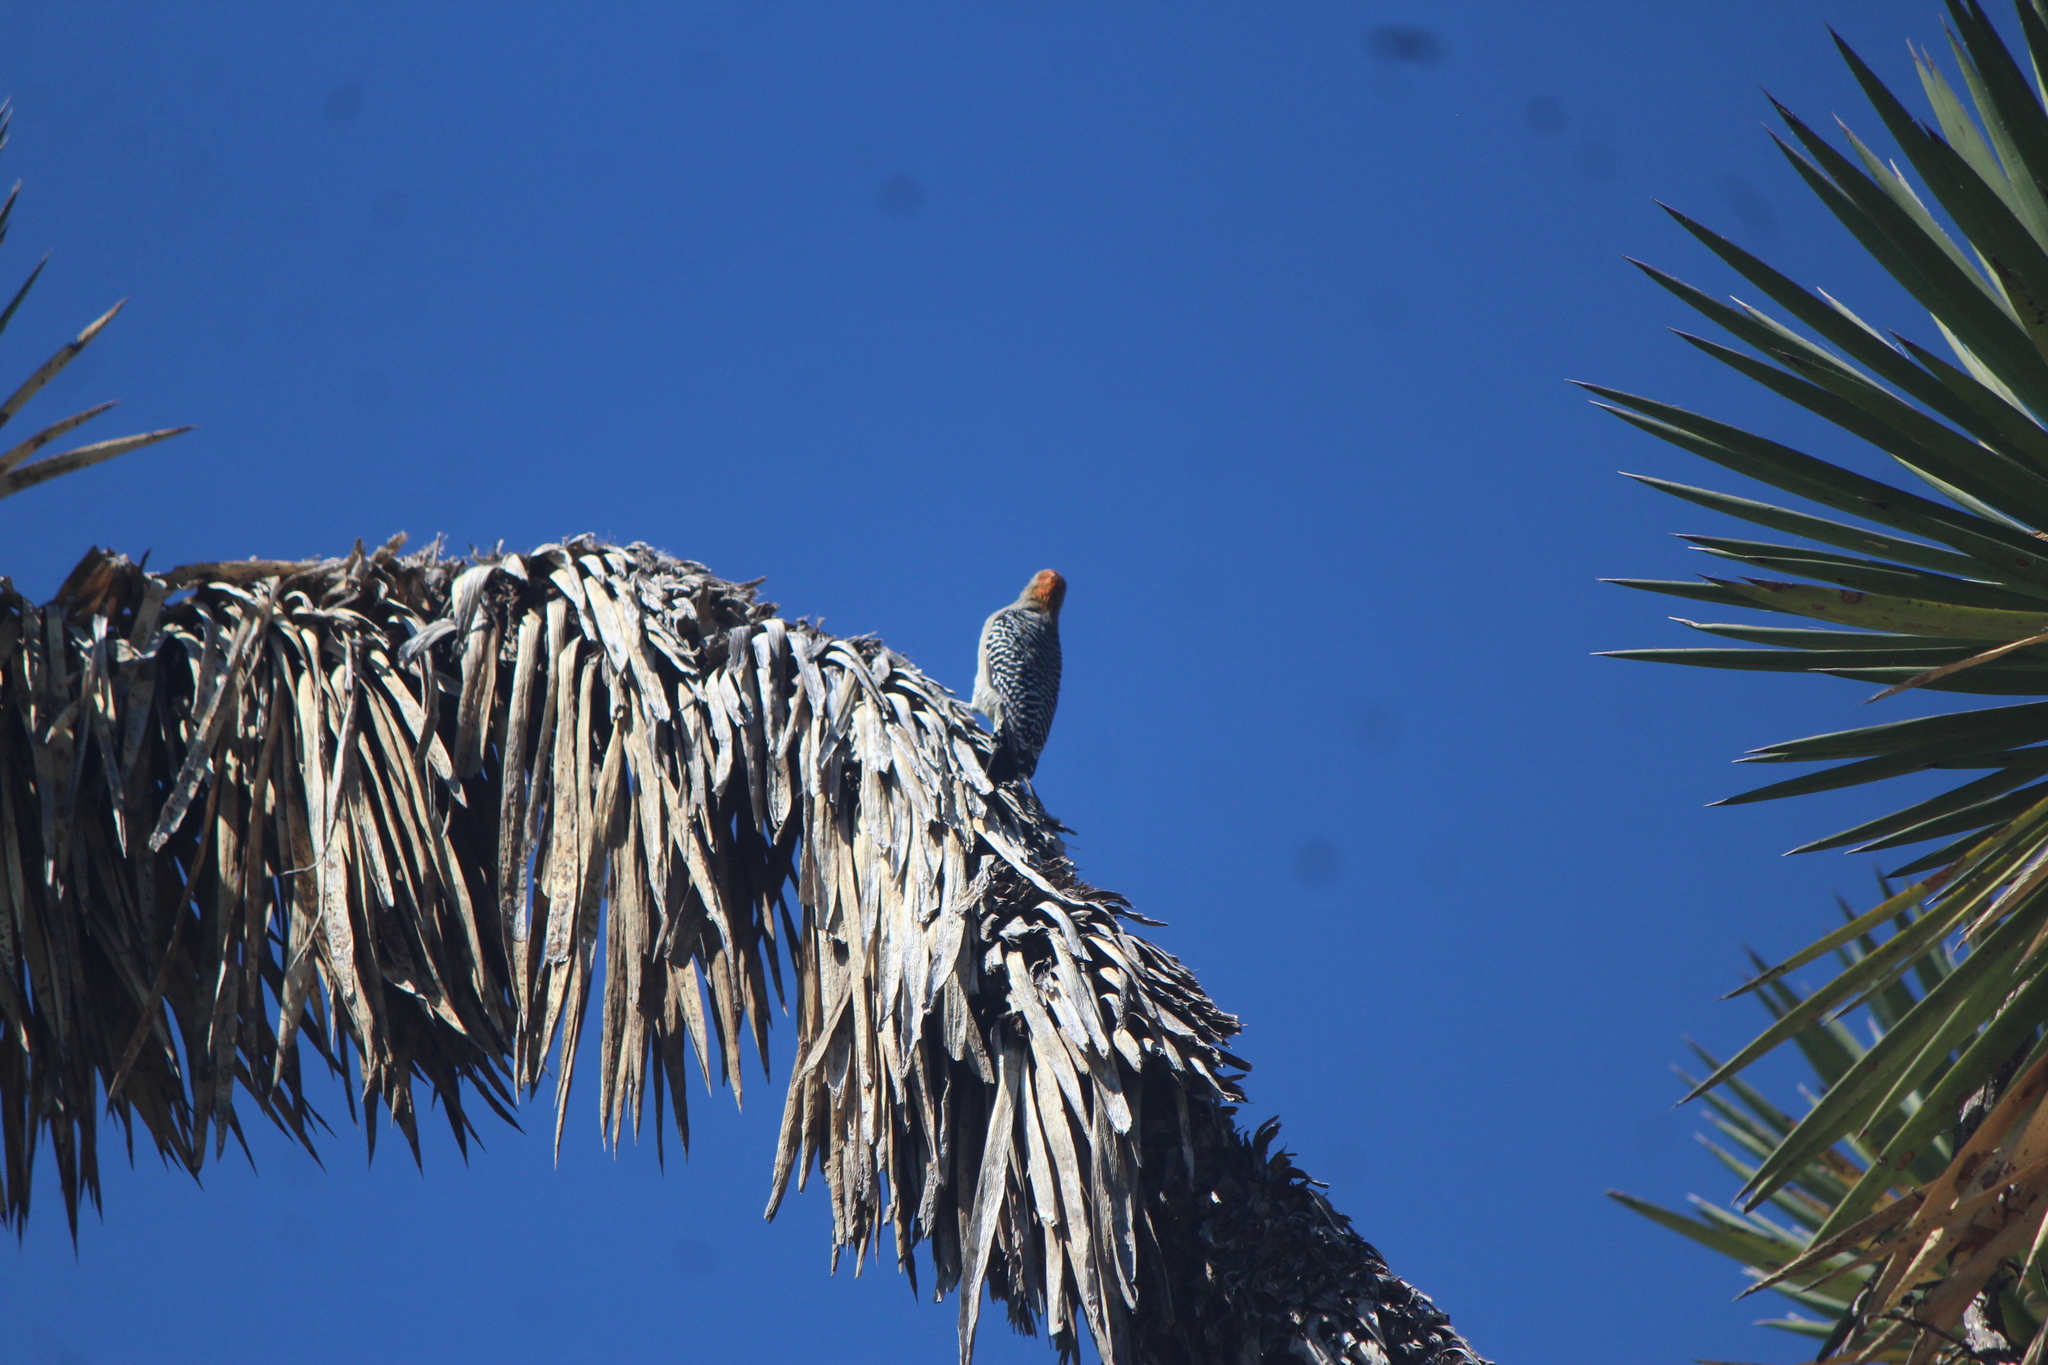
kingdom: Animalia
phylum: Chordata
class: Aves
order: Piciformes
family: Picidae
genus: Melanerpes
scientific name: Melanerpes aurifrons
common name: Golden-fronted woodpecker
